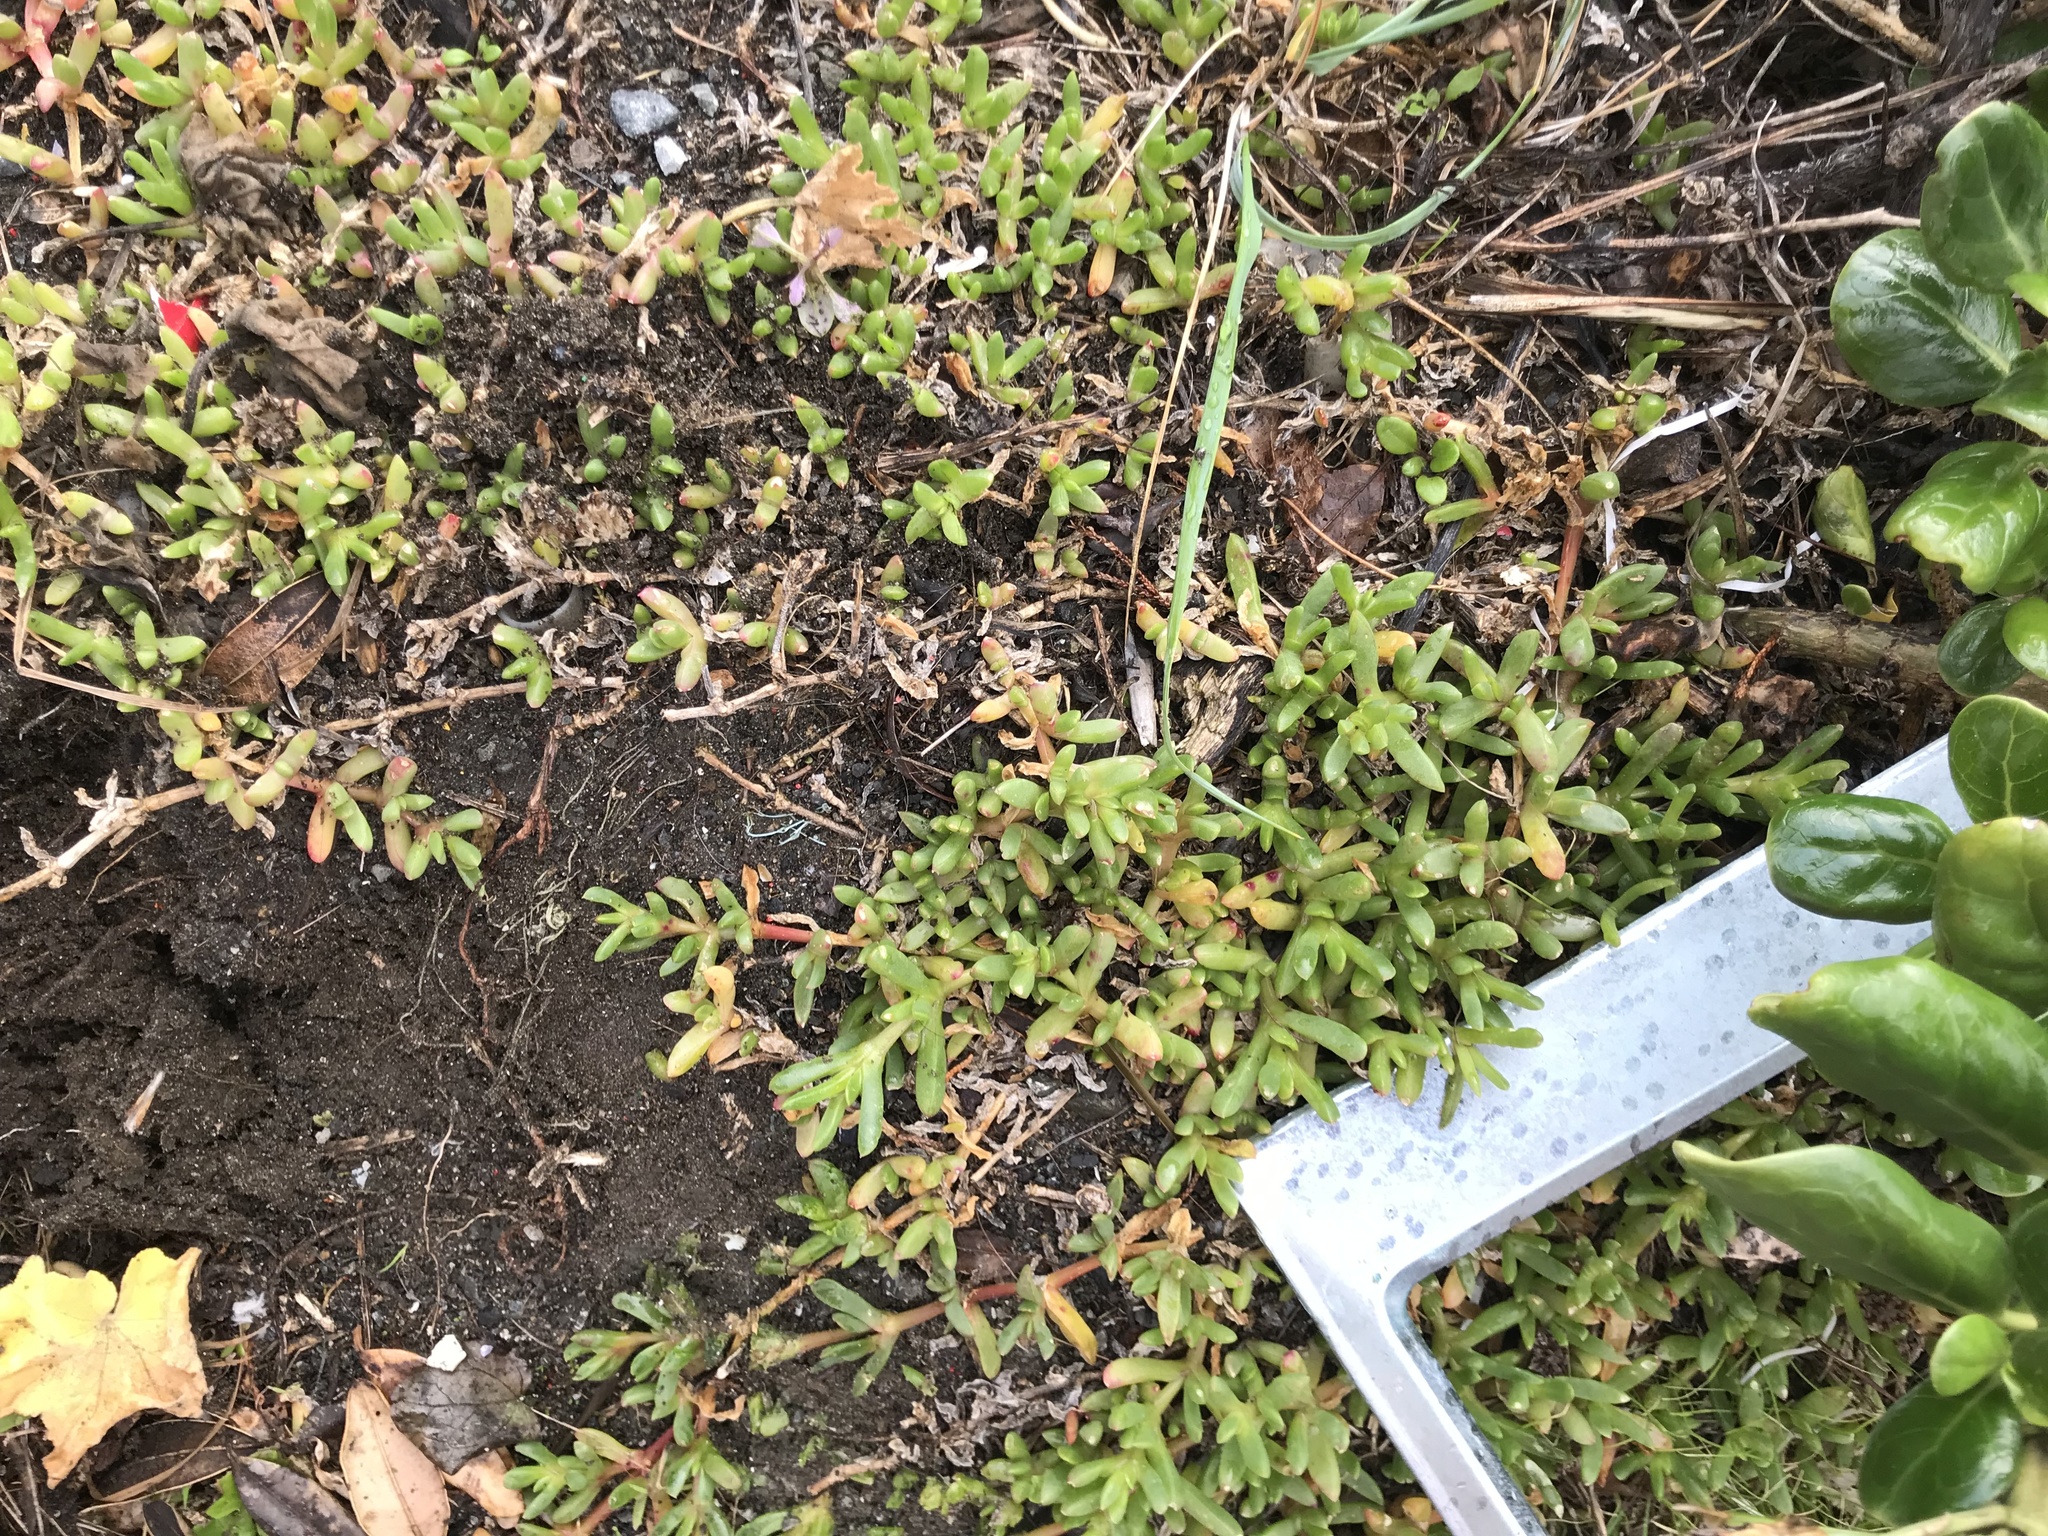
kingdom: Plantae
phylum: Tracheophyta
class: Magnoliopsida
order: Caryophyllales
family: Aizoaceae
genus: Disphyma
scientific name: Disphyma australe
